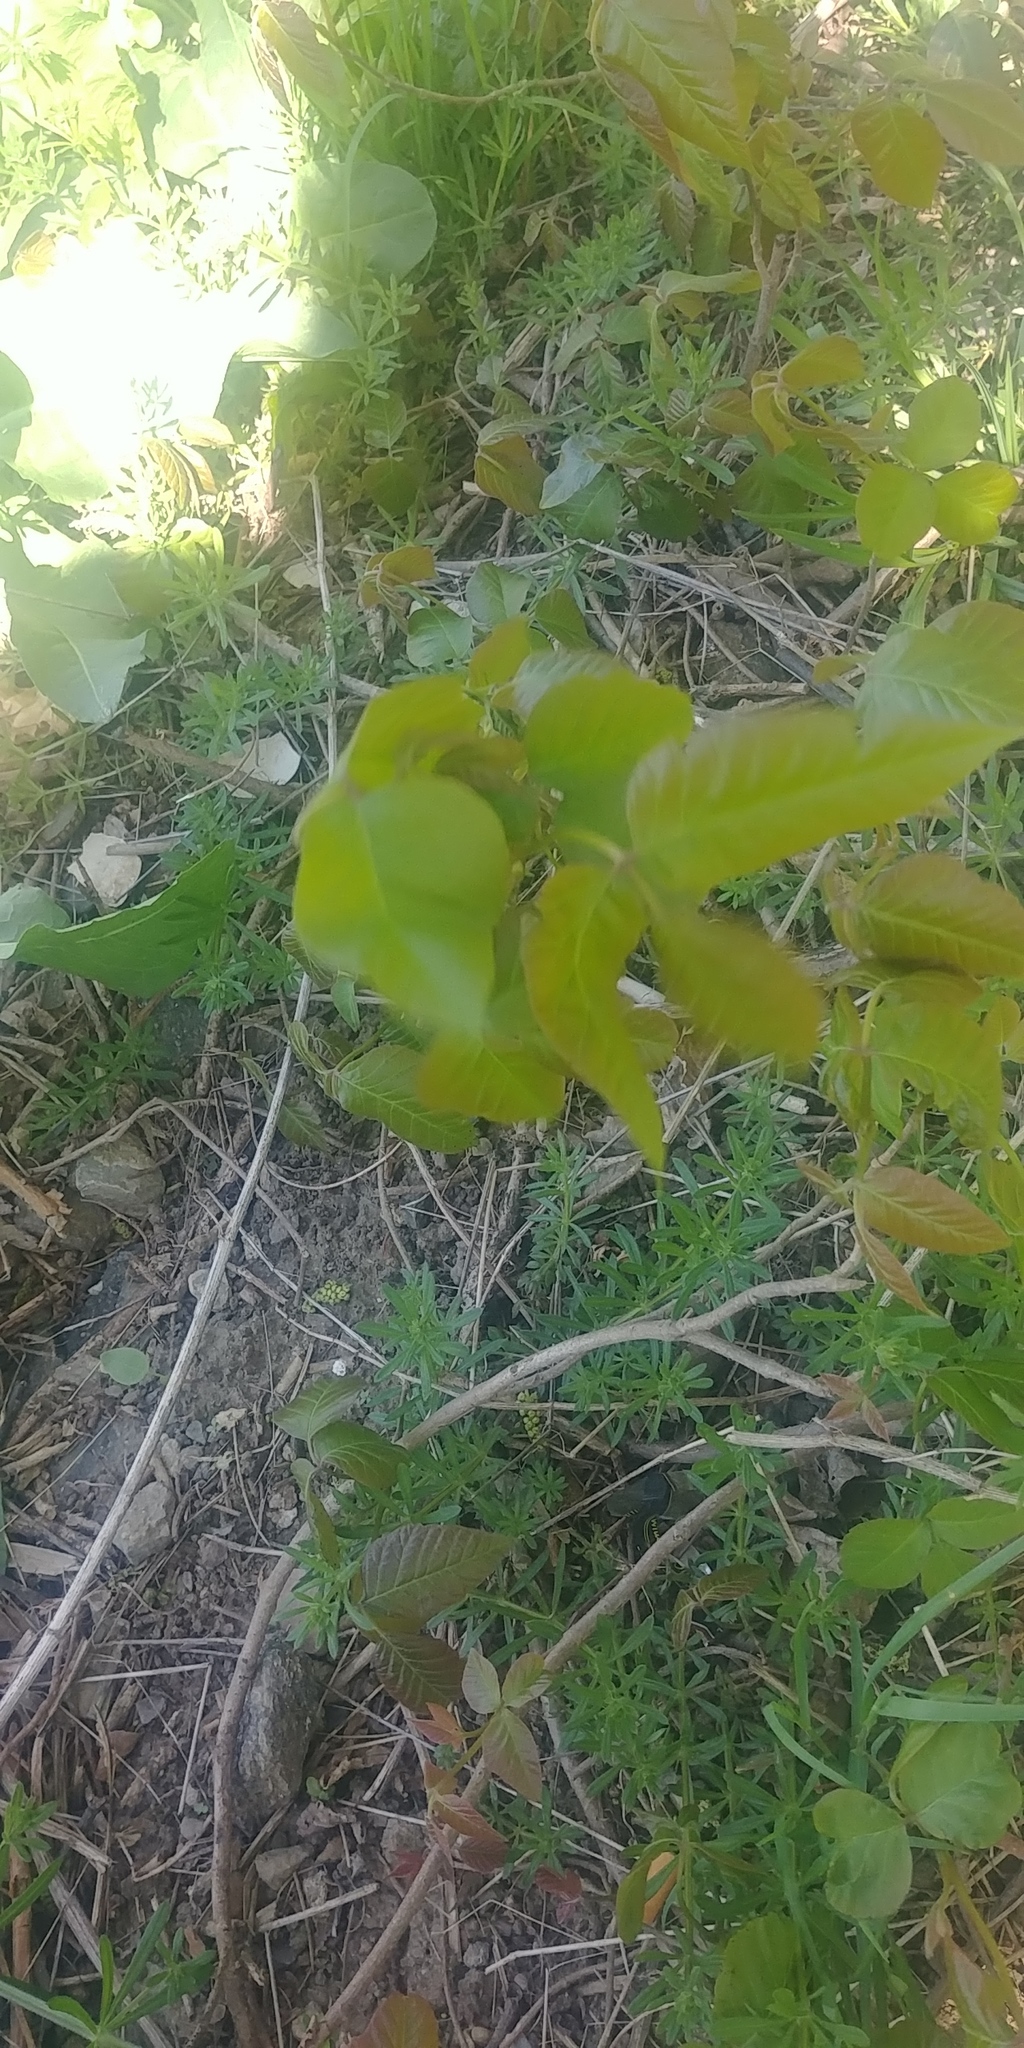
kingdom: Plantae
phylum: Tracheophyta
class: Magnoliopsida
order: Sapindales
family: Anacardiaceae
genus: Toxicodendron
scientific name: Toxicodendron radicans
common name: Poison ivy
